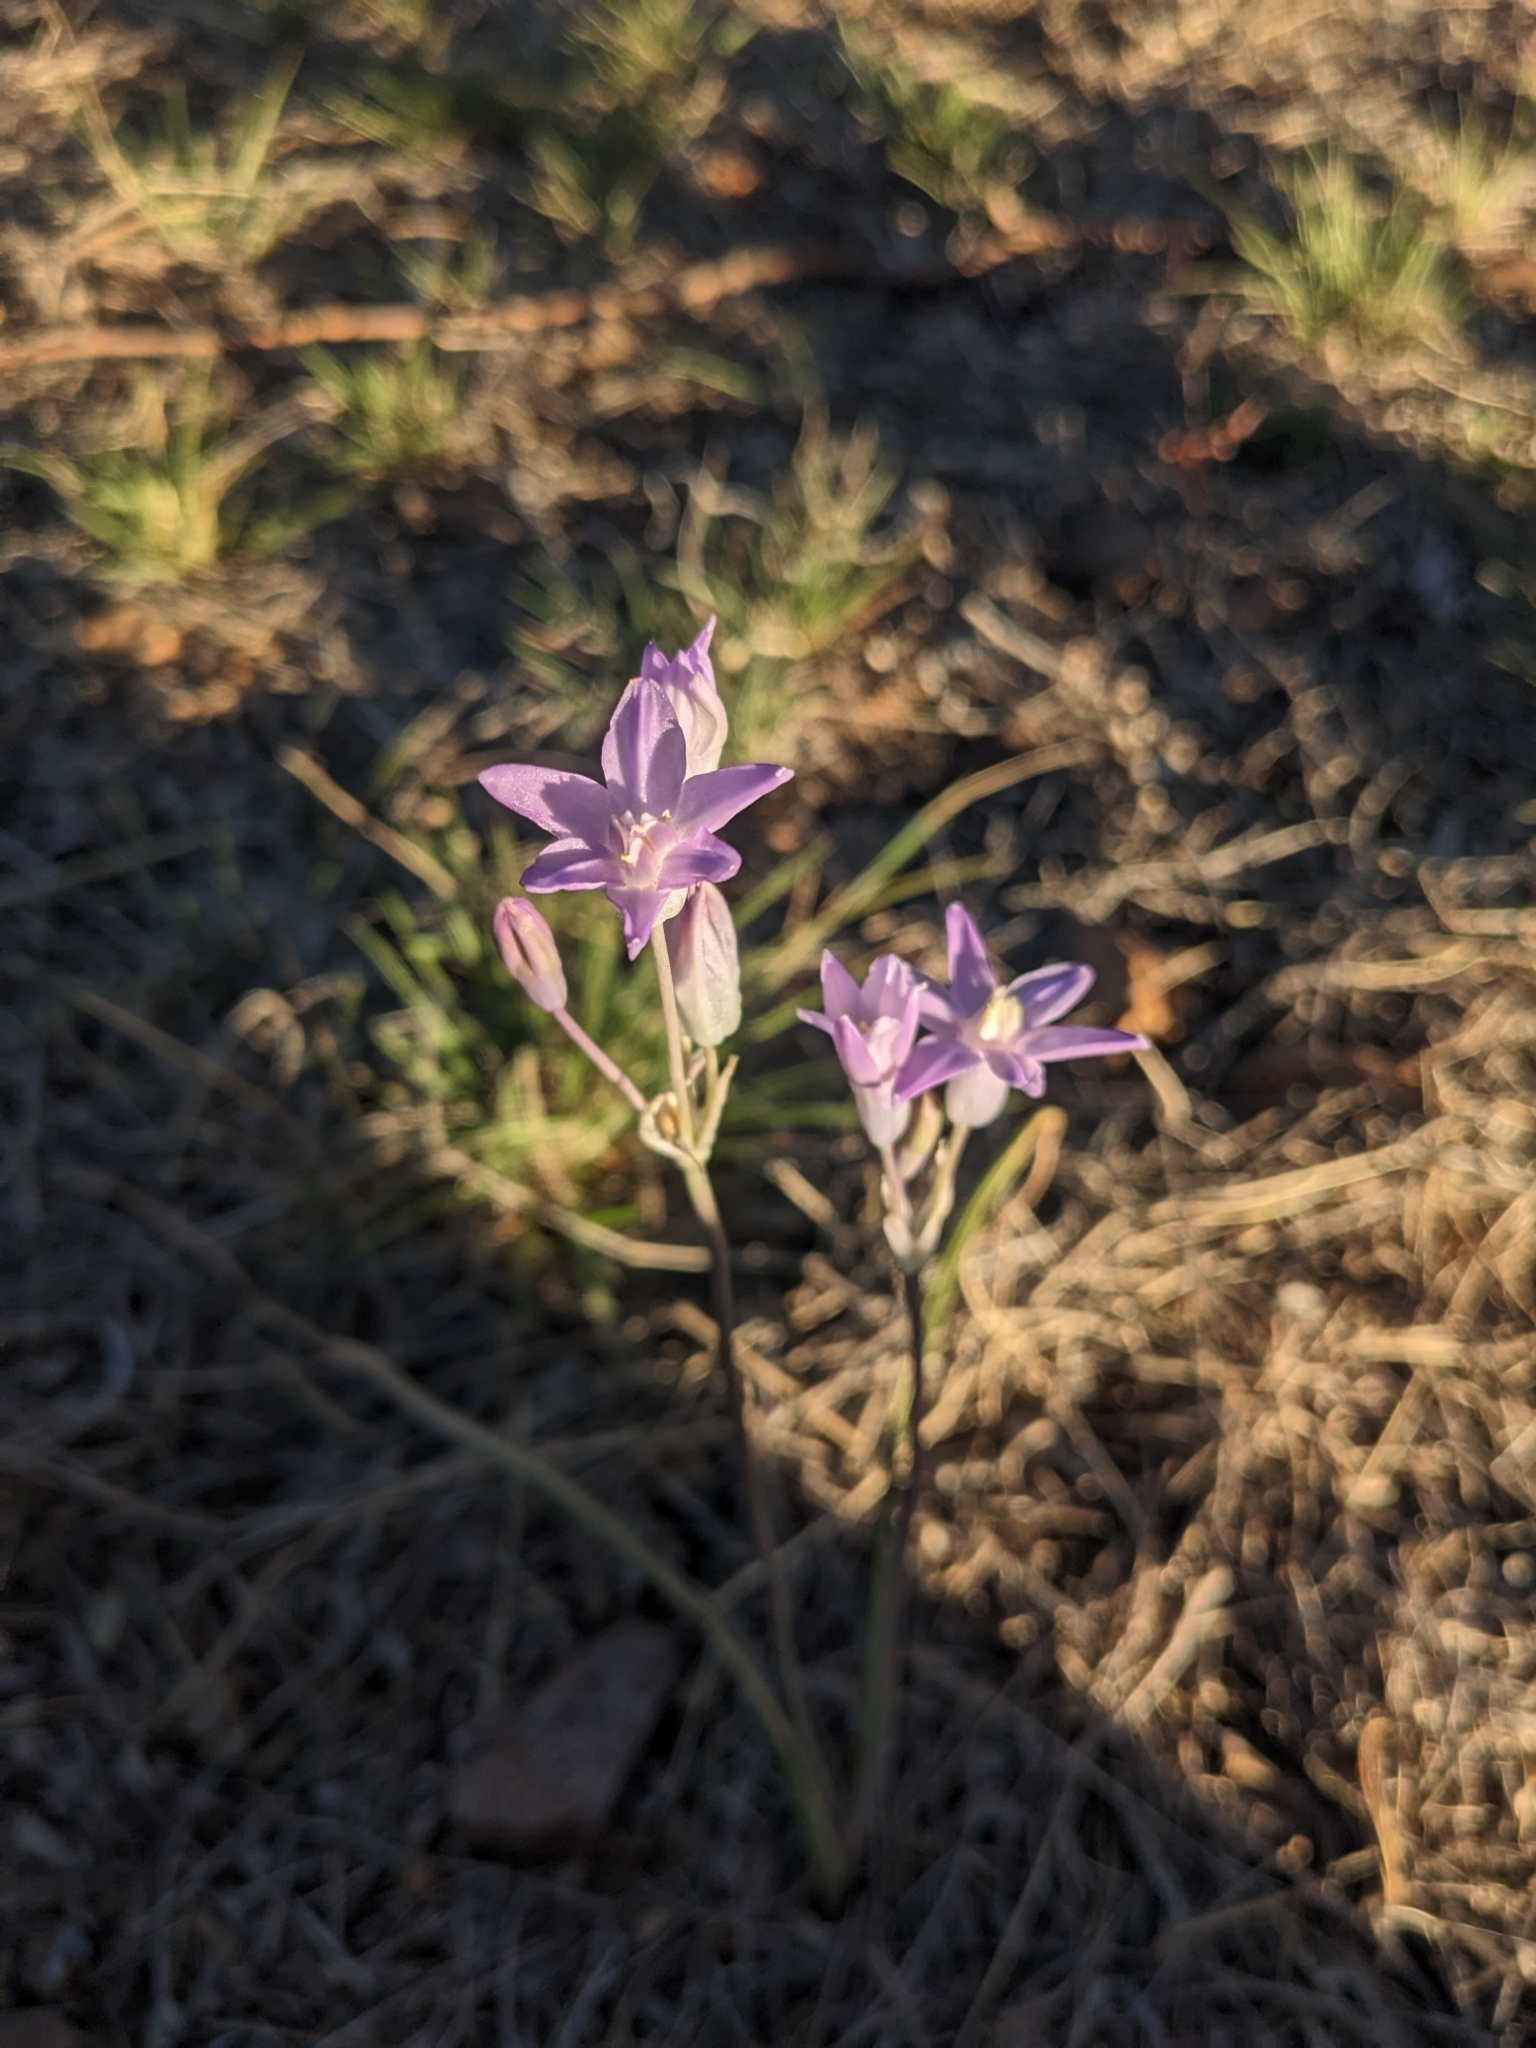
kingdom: Plantae
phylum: Tracheophyta
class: Liliopsida
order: Asparagales
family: Asparagaceae
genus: Dipterostemon
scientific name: Dipterostemon capitatus
